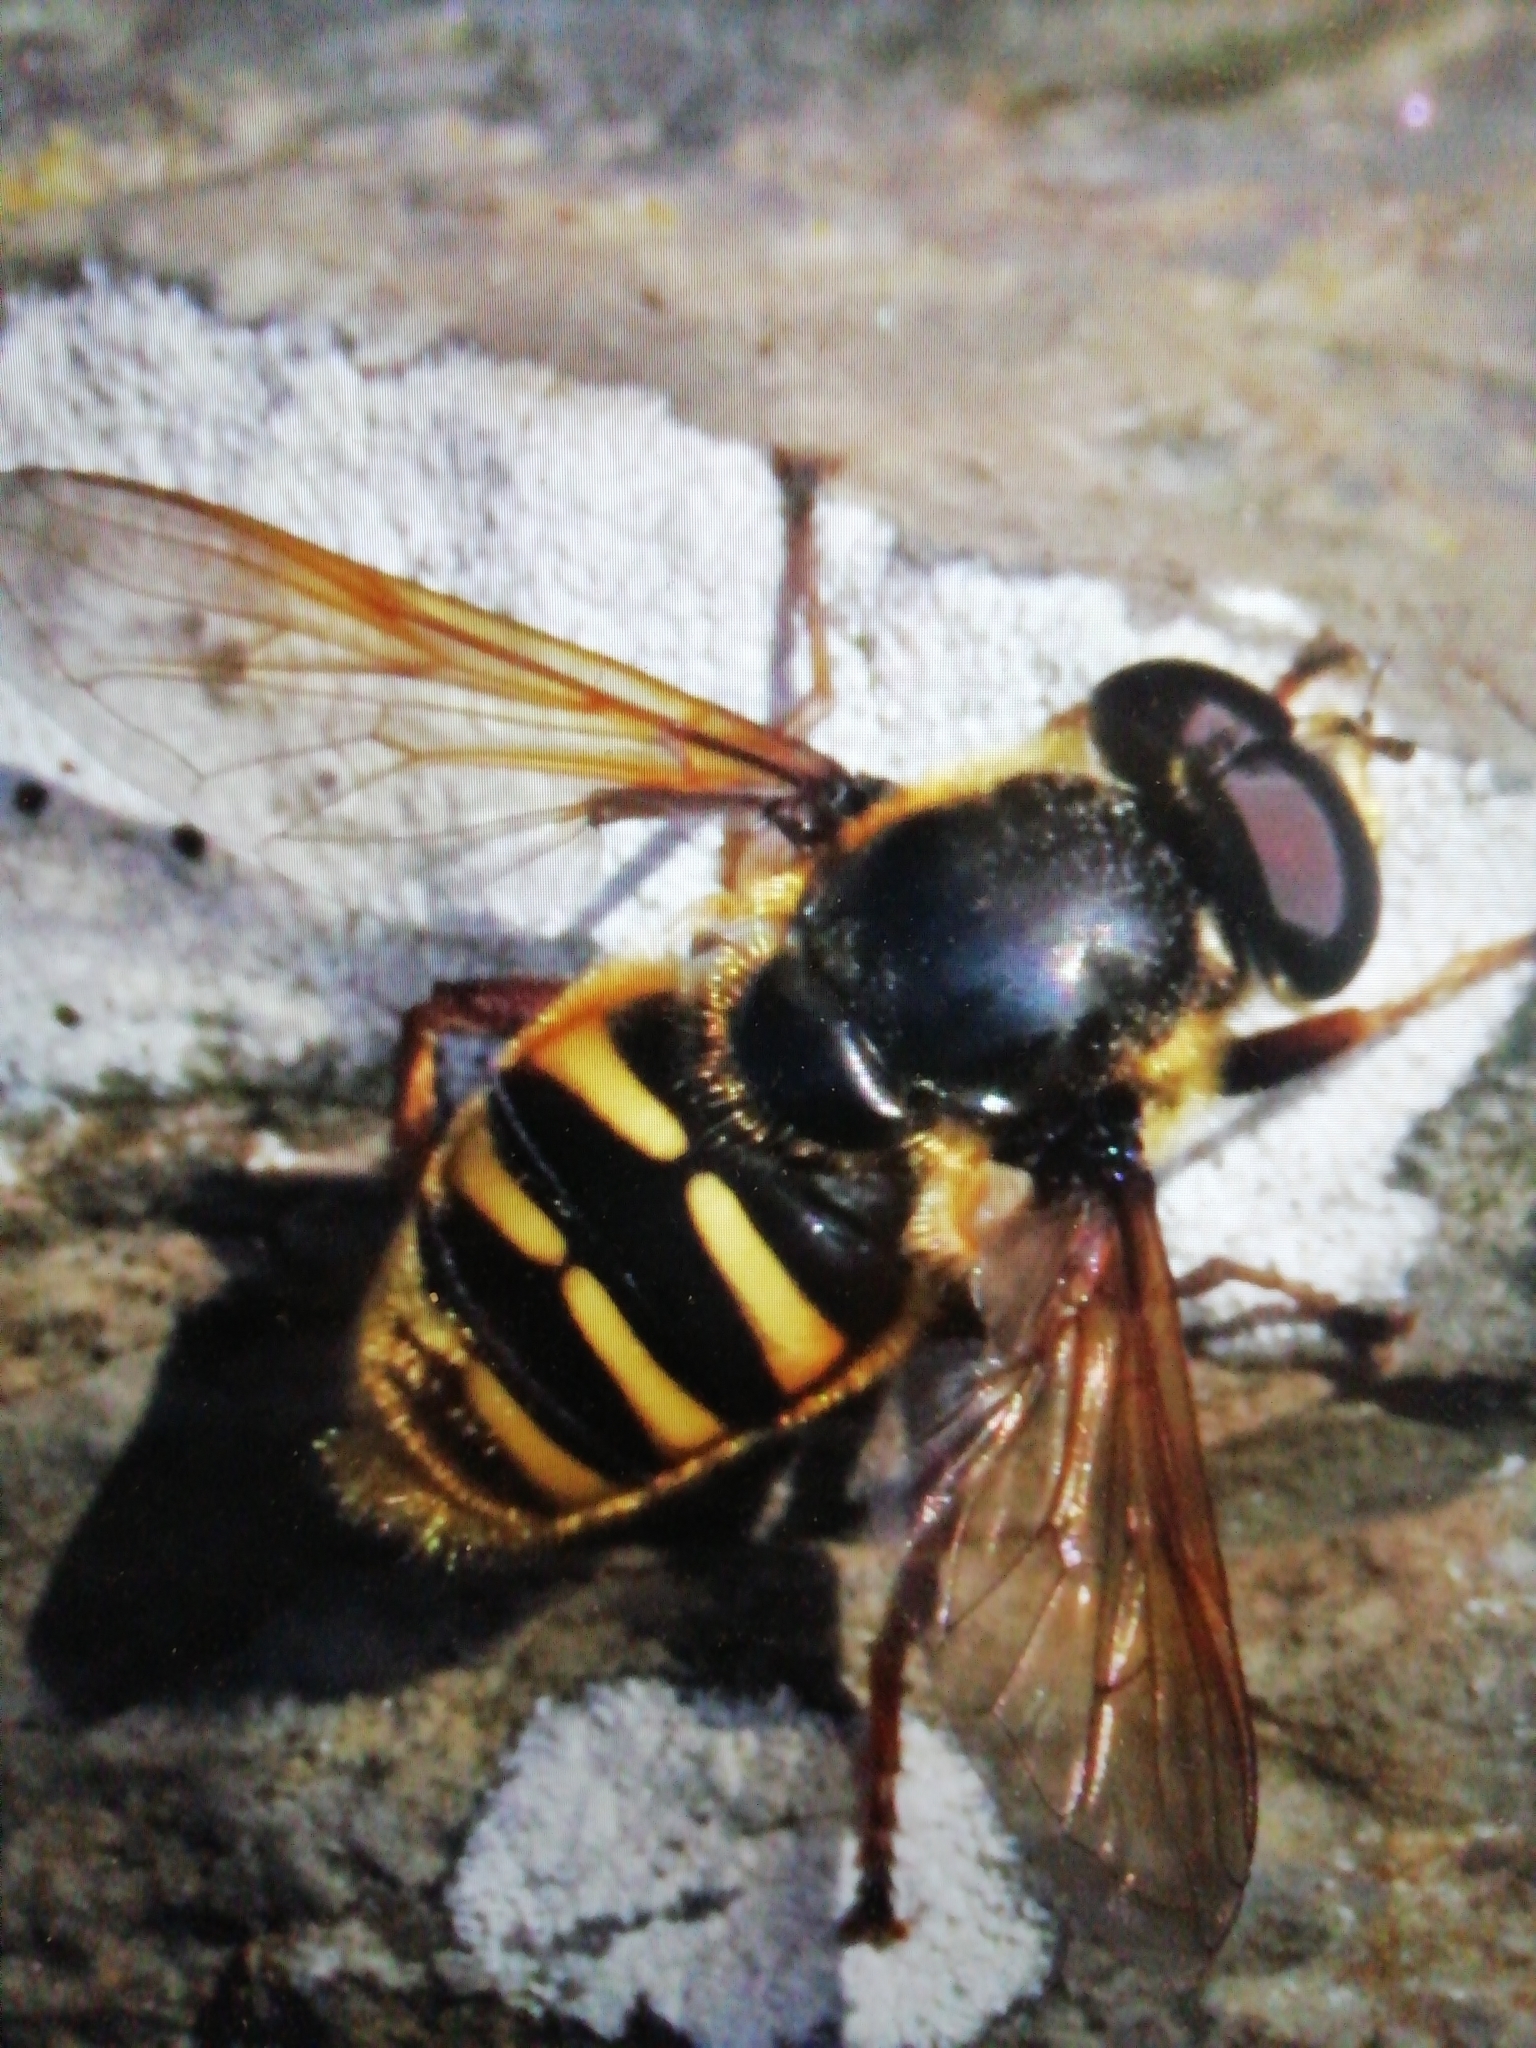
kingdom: Animalia
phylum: Arthropoda
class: Insecta
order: Diptera
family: Syrphidae
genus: Sericomyia
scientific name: Sericomyia silentis
